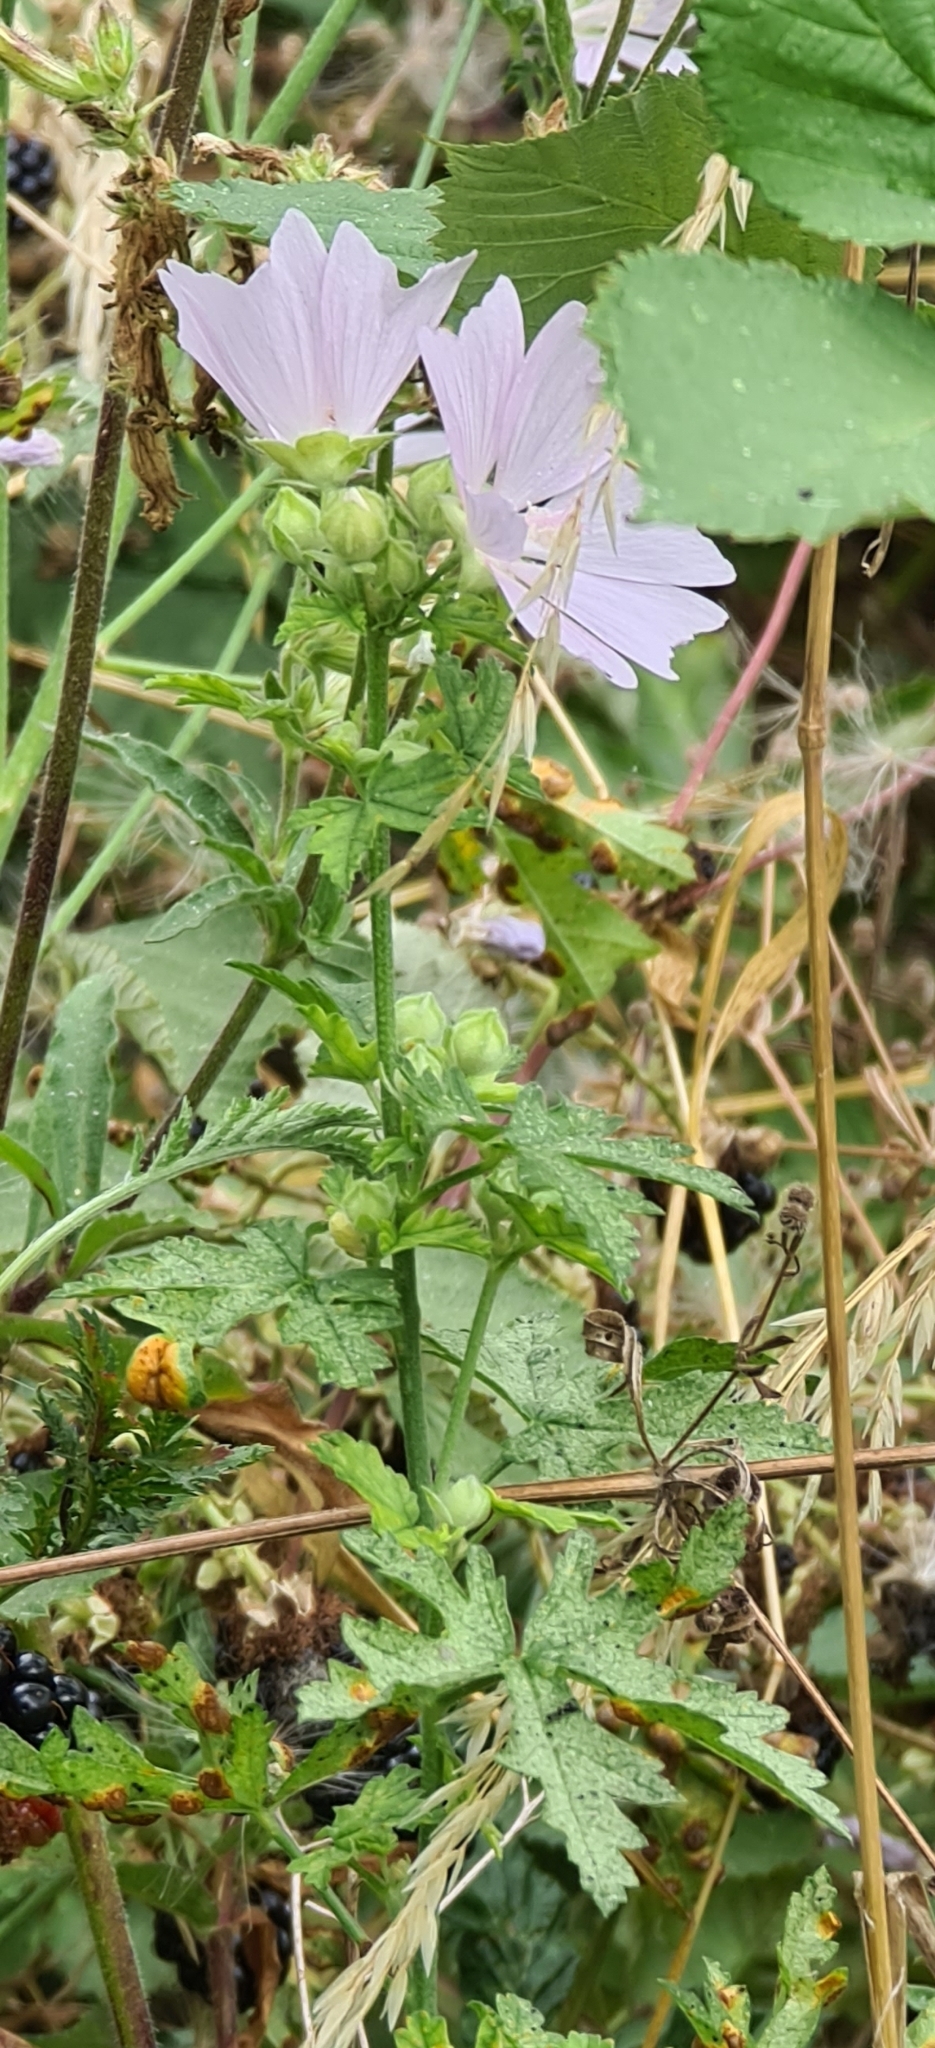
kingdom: Plantae
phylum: Tracheophyta
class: Magnoliopsida
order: Malvales
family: Malvaceae
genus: Malva
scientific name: Malva moschata
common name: Musk mallow
